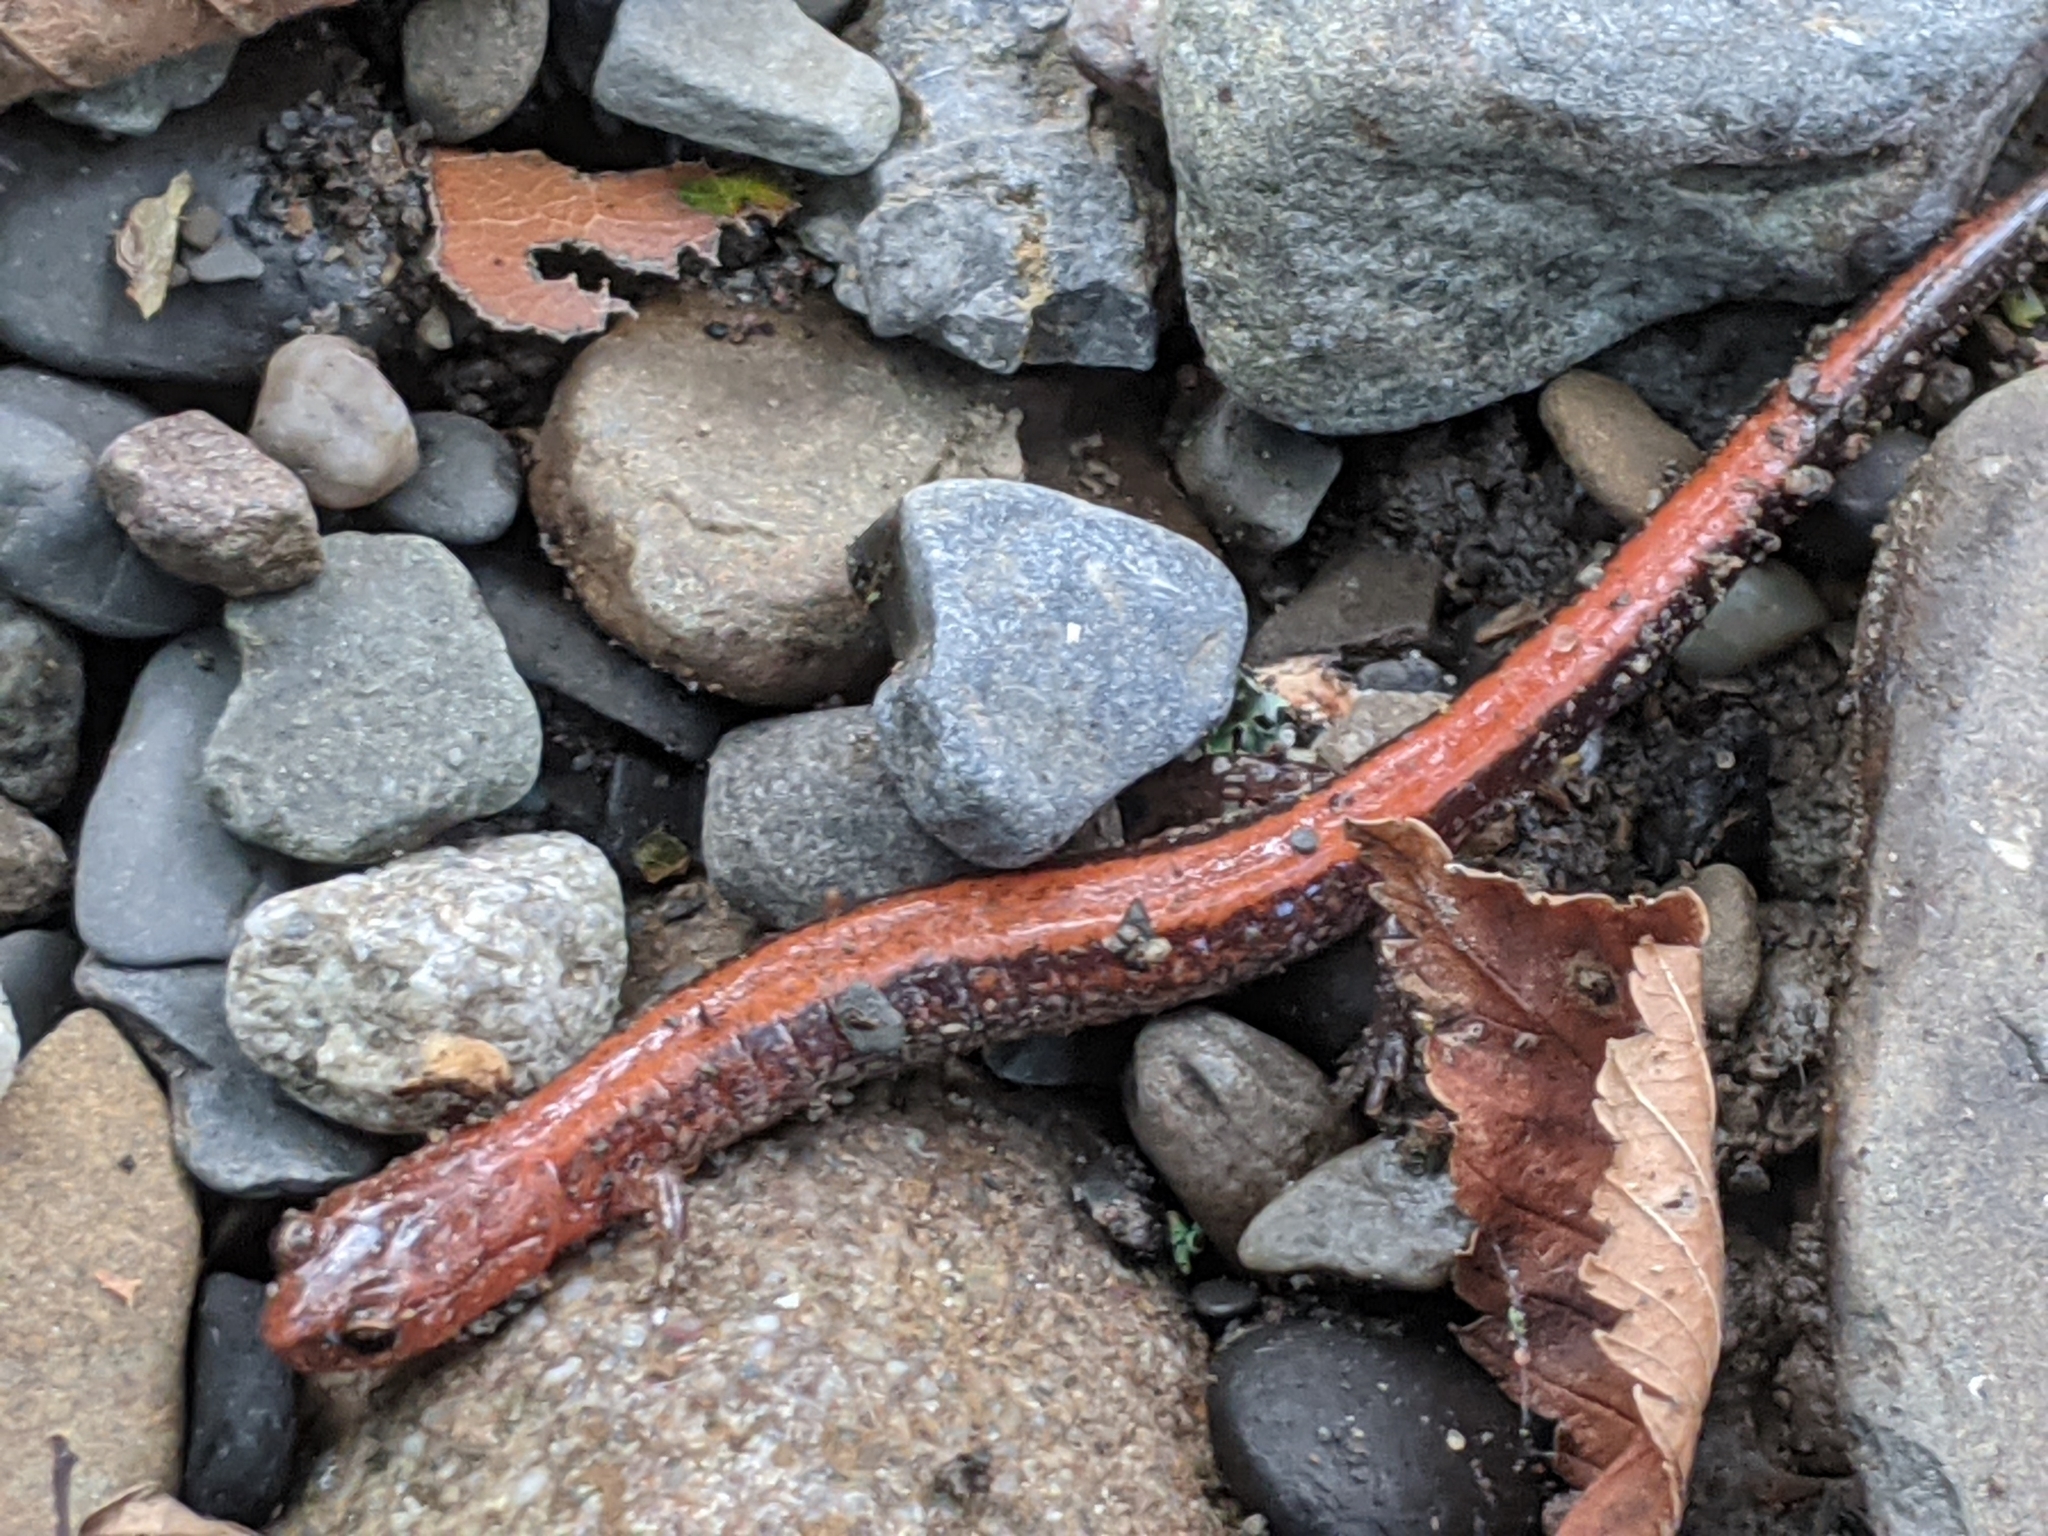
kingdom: Animalia
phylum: Chordata
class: Amphibia
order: Caudata
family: Plethodontidae
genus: Plethodon
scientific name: Plethodon cinereus
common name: Redback salamander
